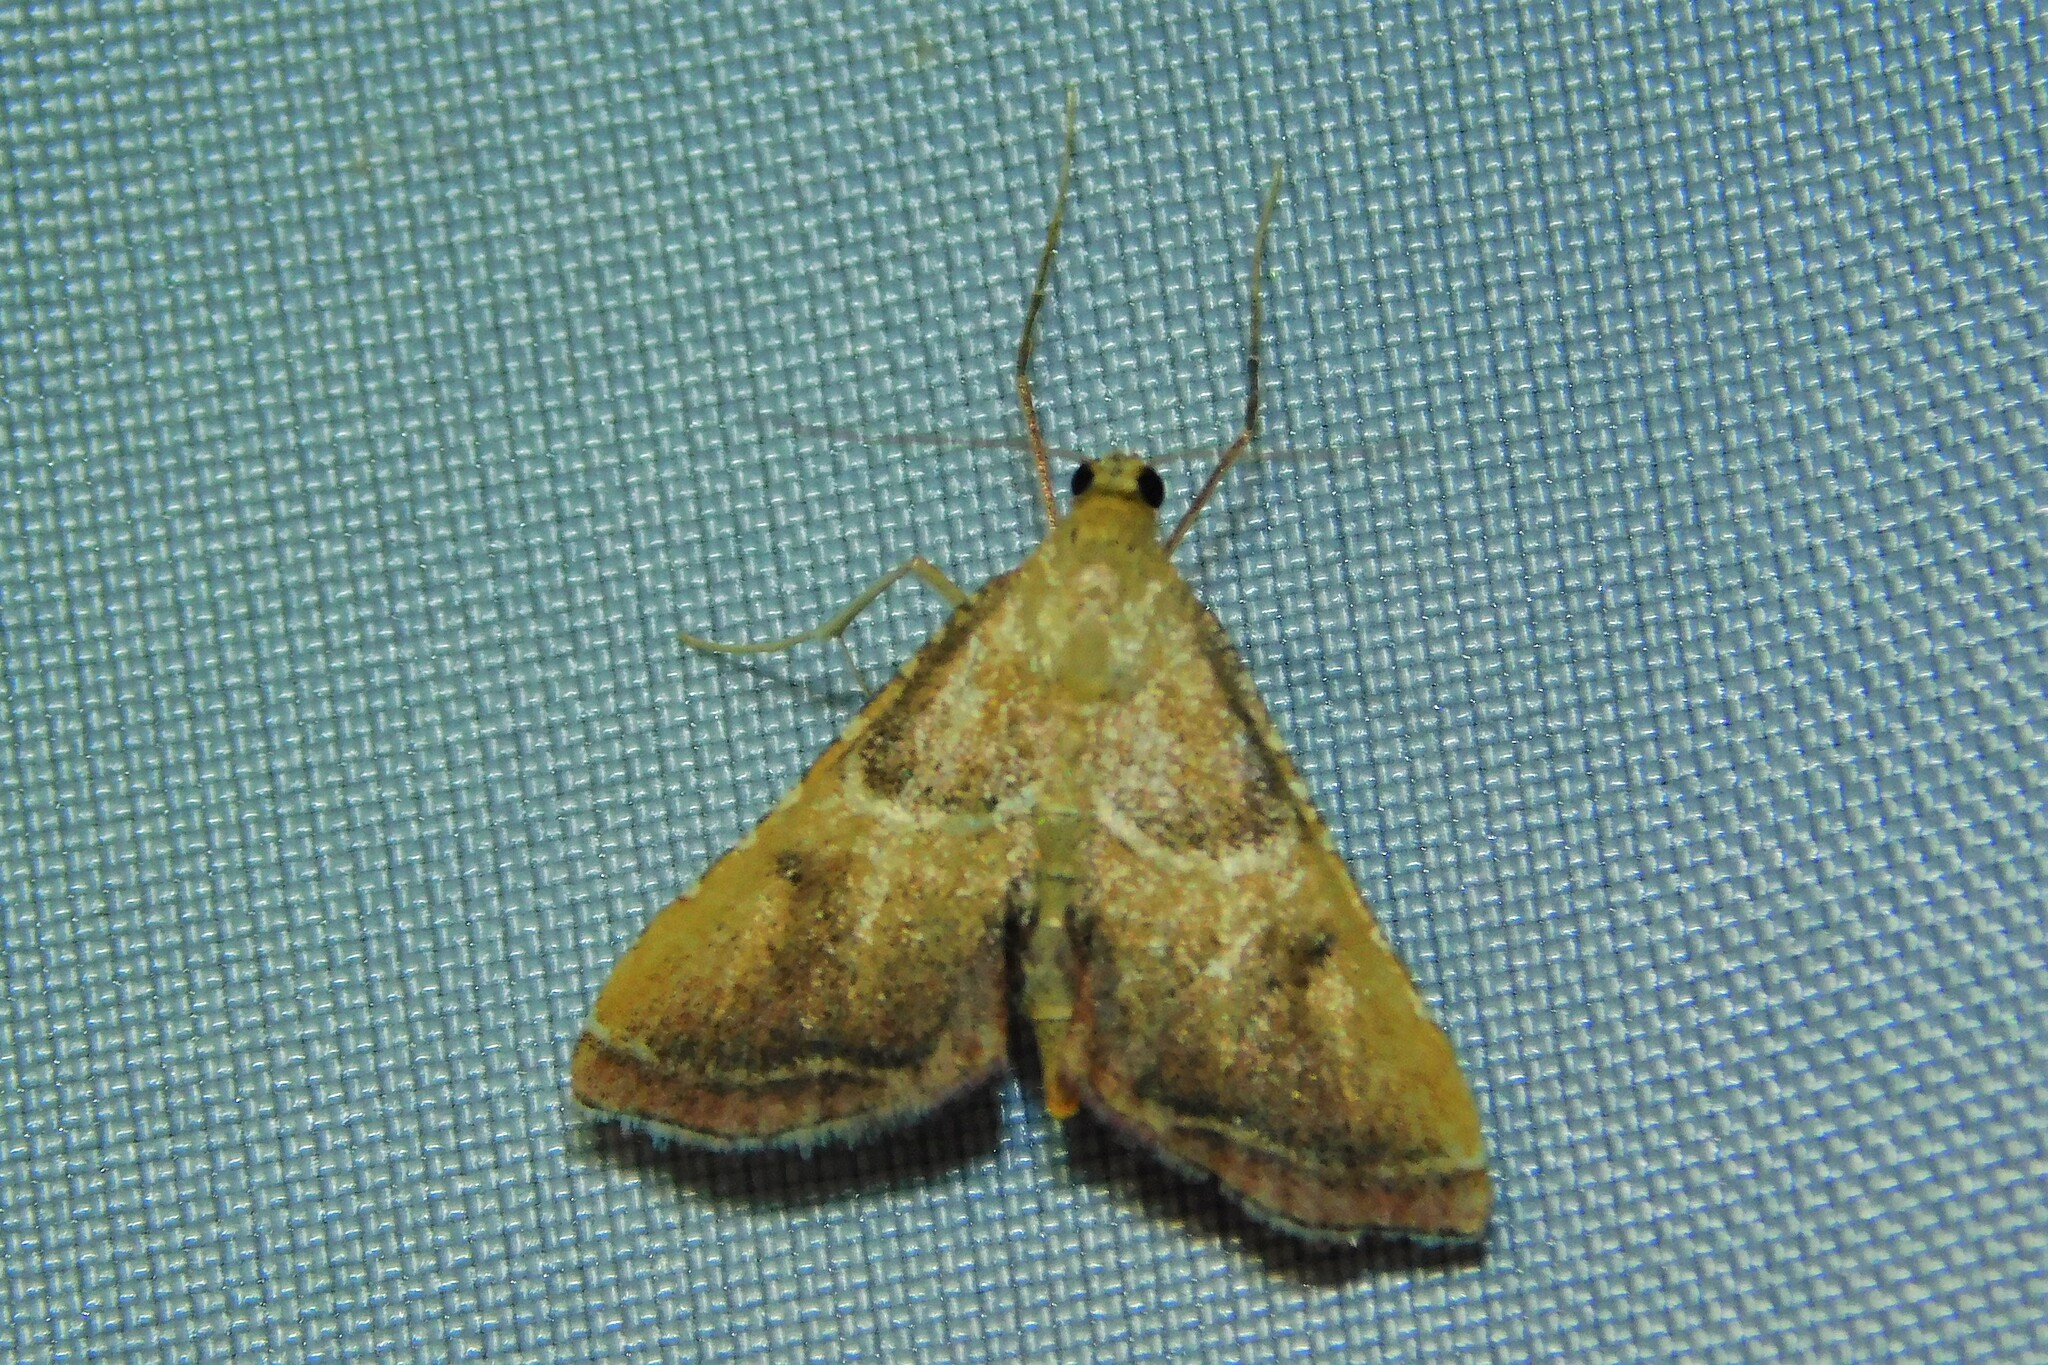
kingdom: Animalia
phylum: Arthropoda
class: Insecta
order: Lepidoptera
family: Pyralidae
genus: Endotricha
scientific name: Endotricha flammealis
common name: Rosy tabby
